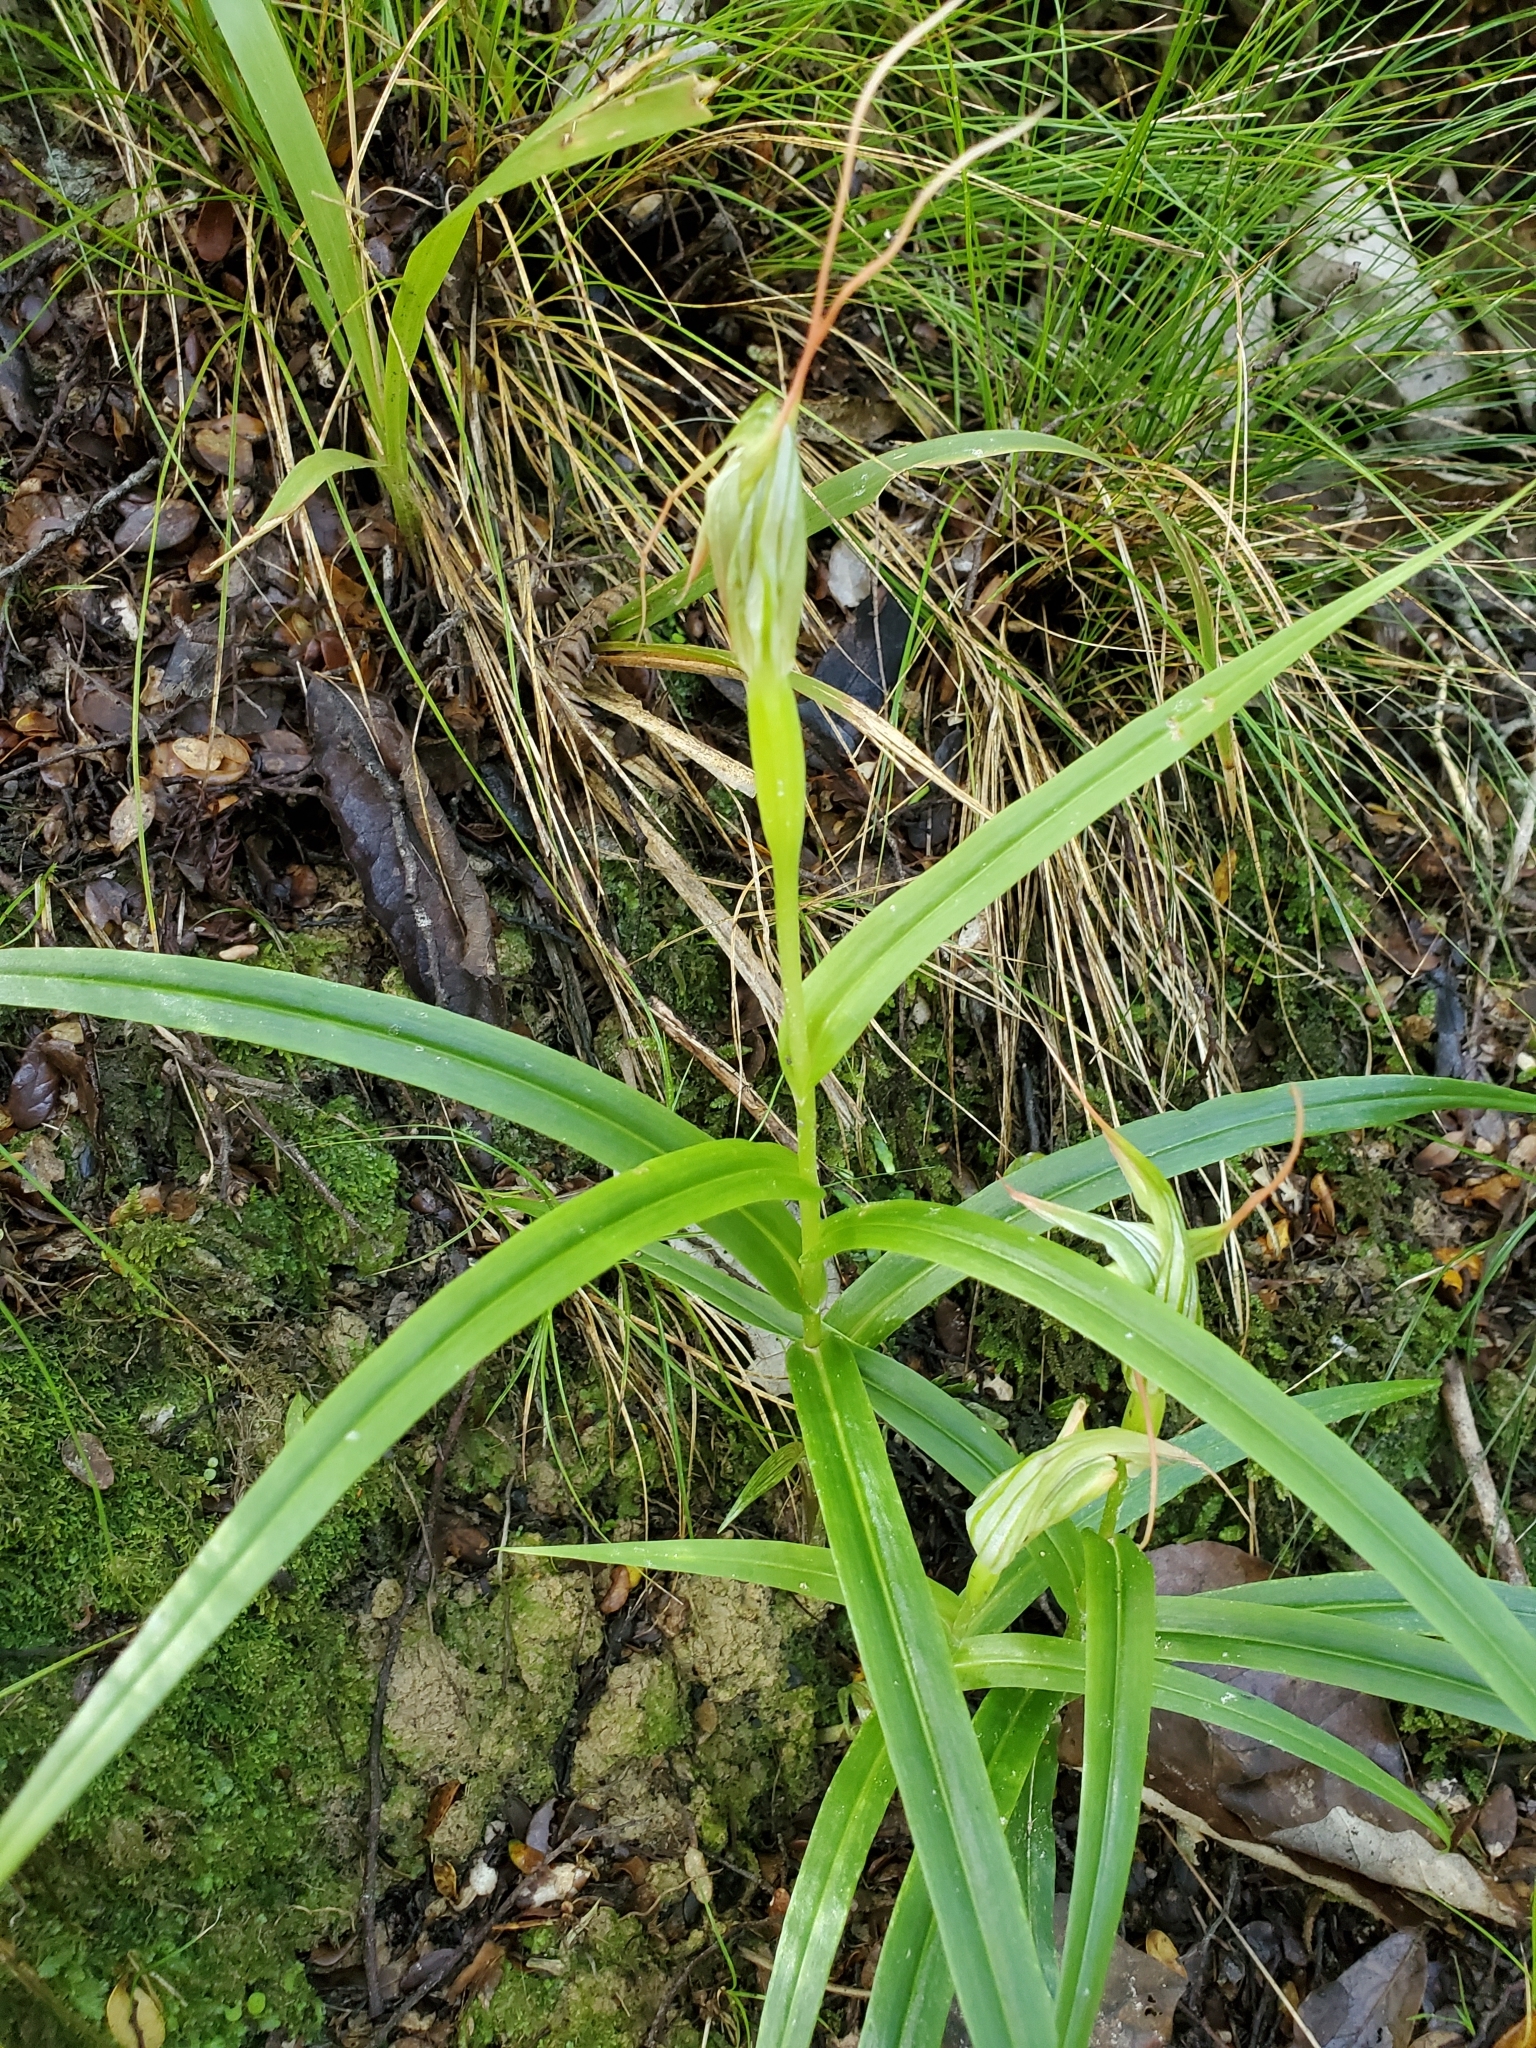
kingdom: Plantae
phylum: Tracheophyta
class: Liliopsida
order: Asparagales
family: Orchidaceae
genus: Pterostylis
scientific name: Pterostylis banksii
